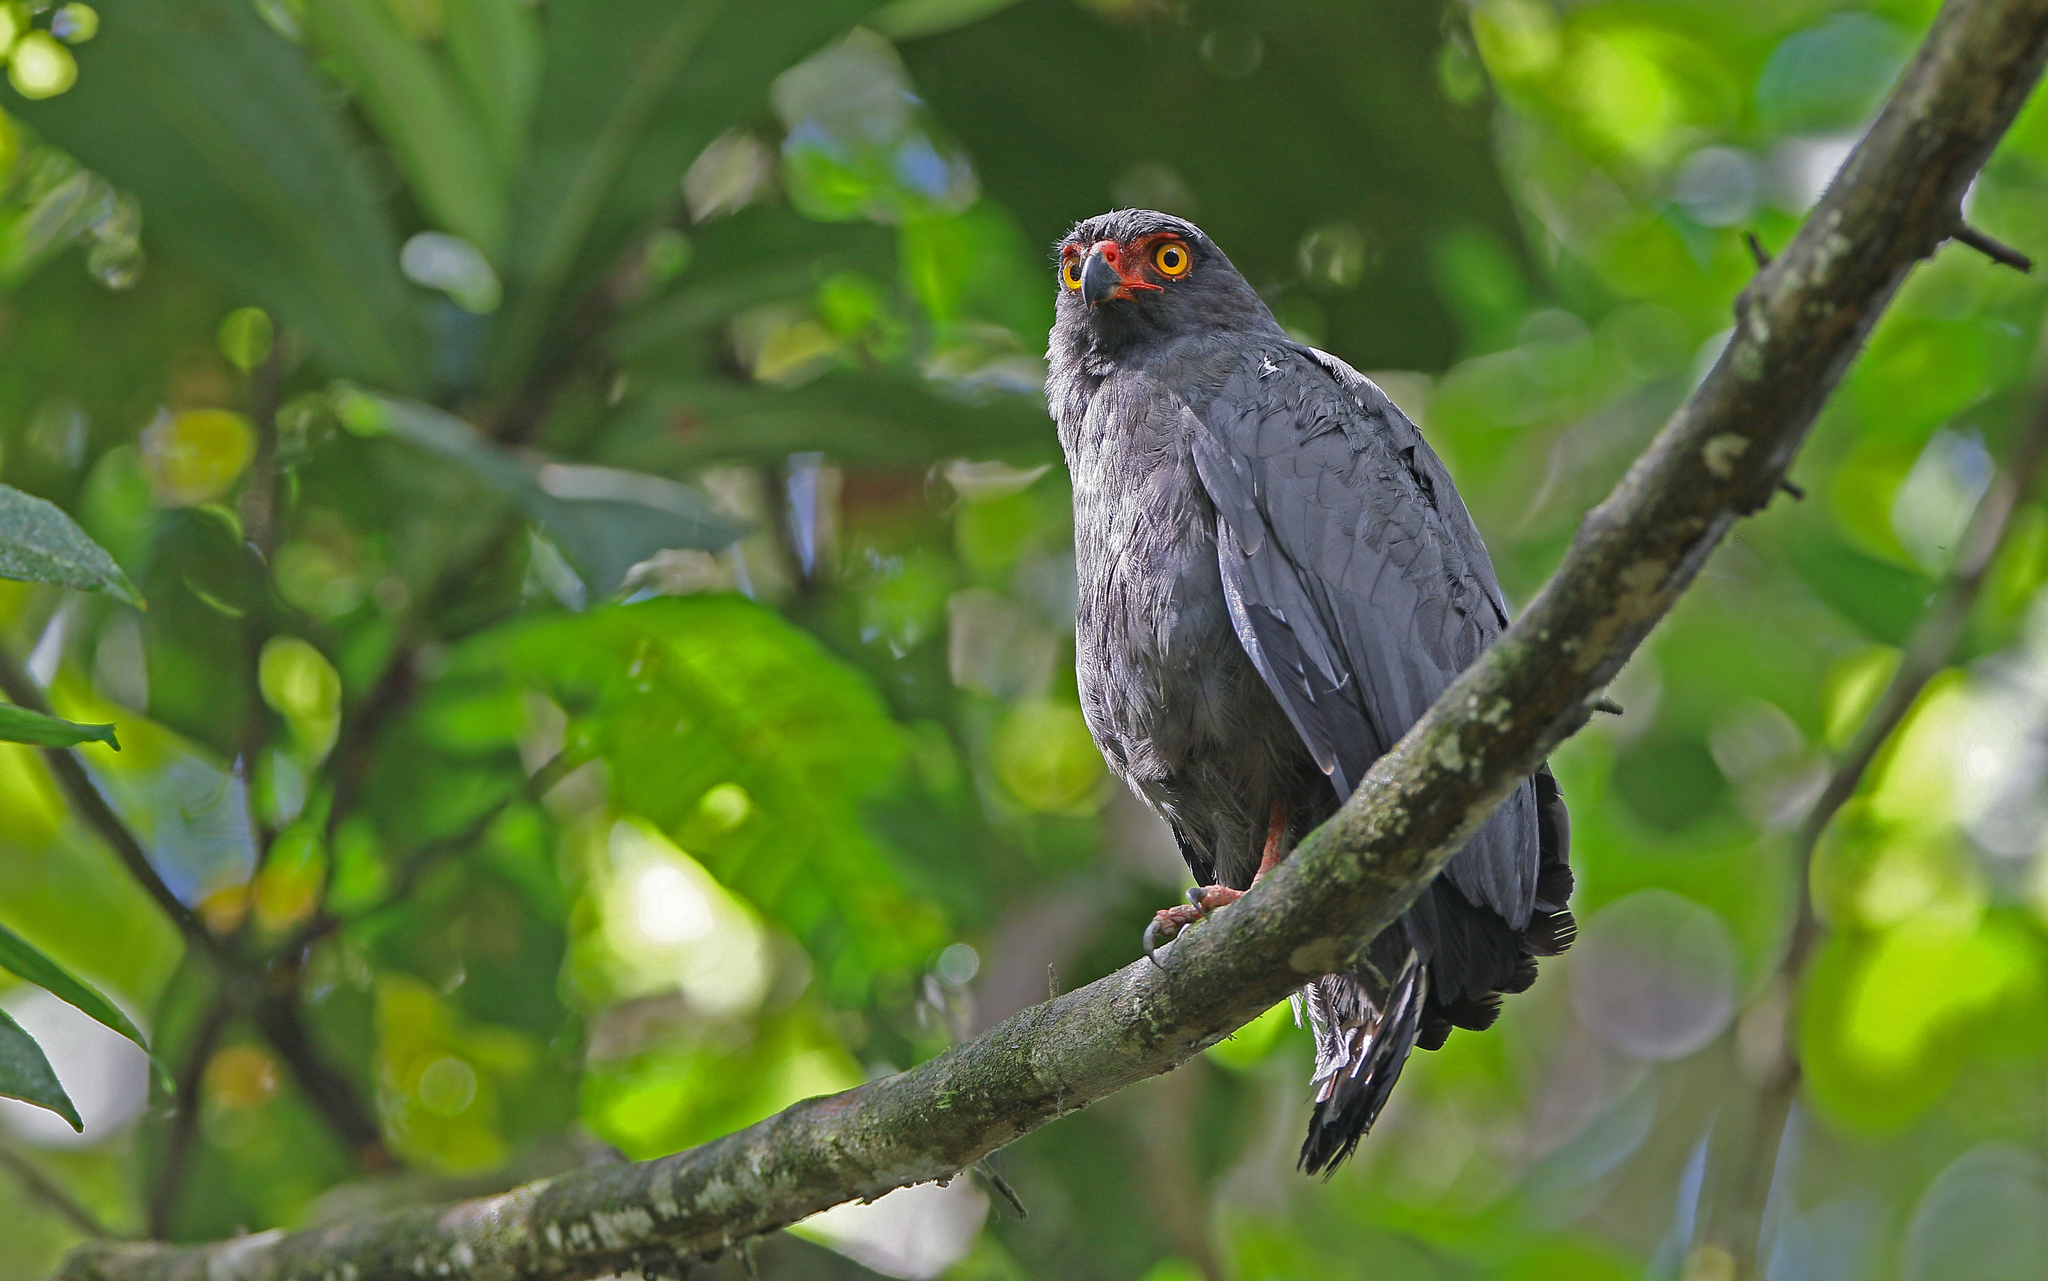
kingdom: Animalia
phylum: Chordata
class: Aves
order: Accipitriformes
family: Accipitridae
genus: Leucopternis
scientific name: Leucopternis schistaceus
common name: Slate-colored hawk
